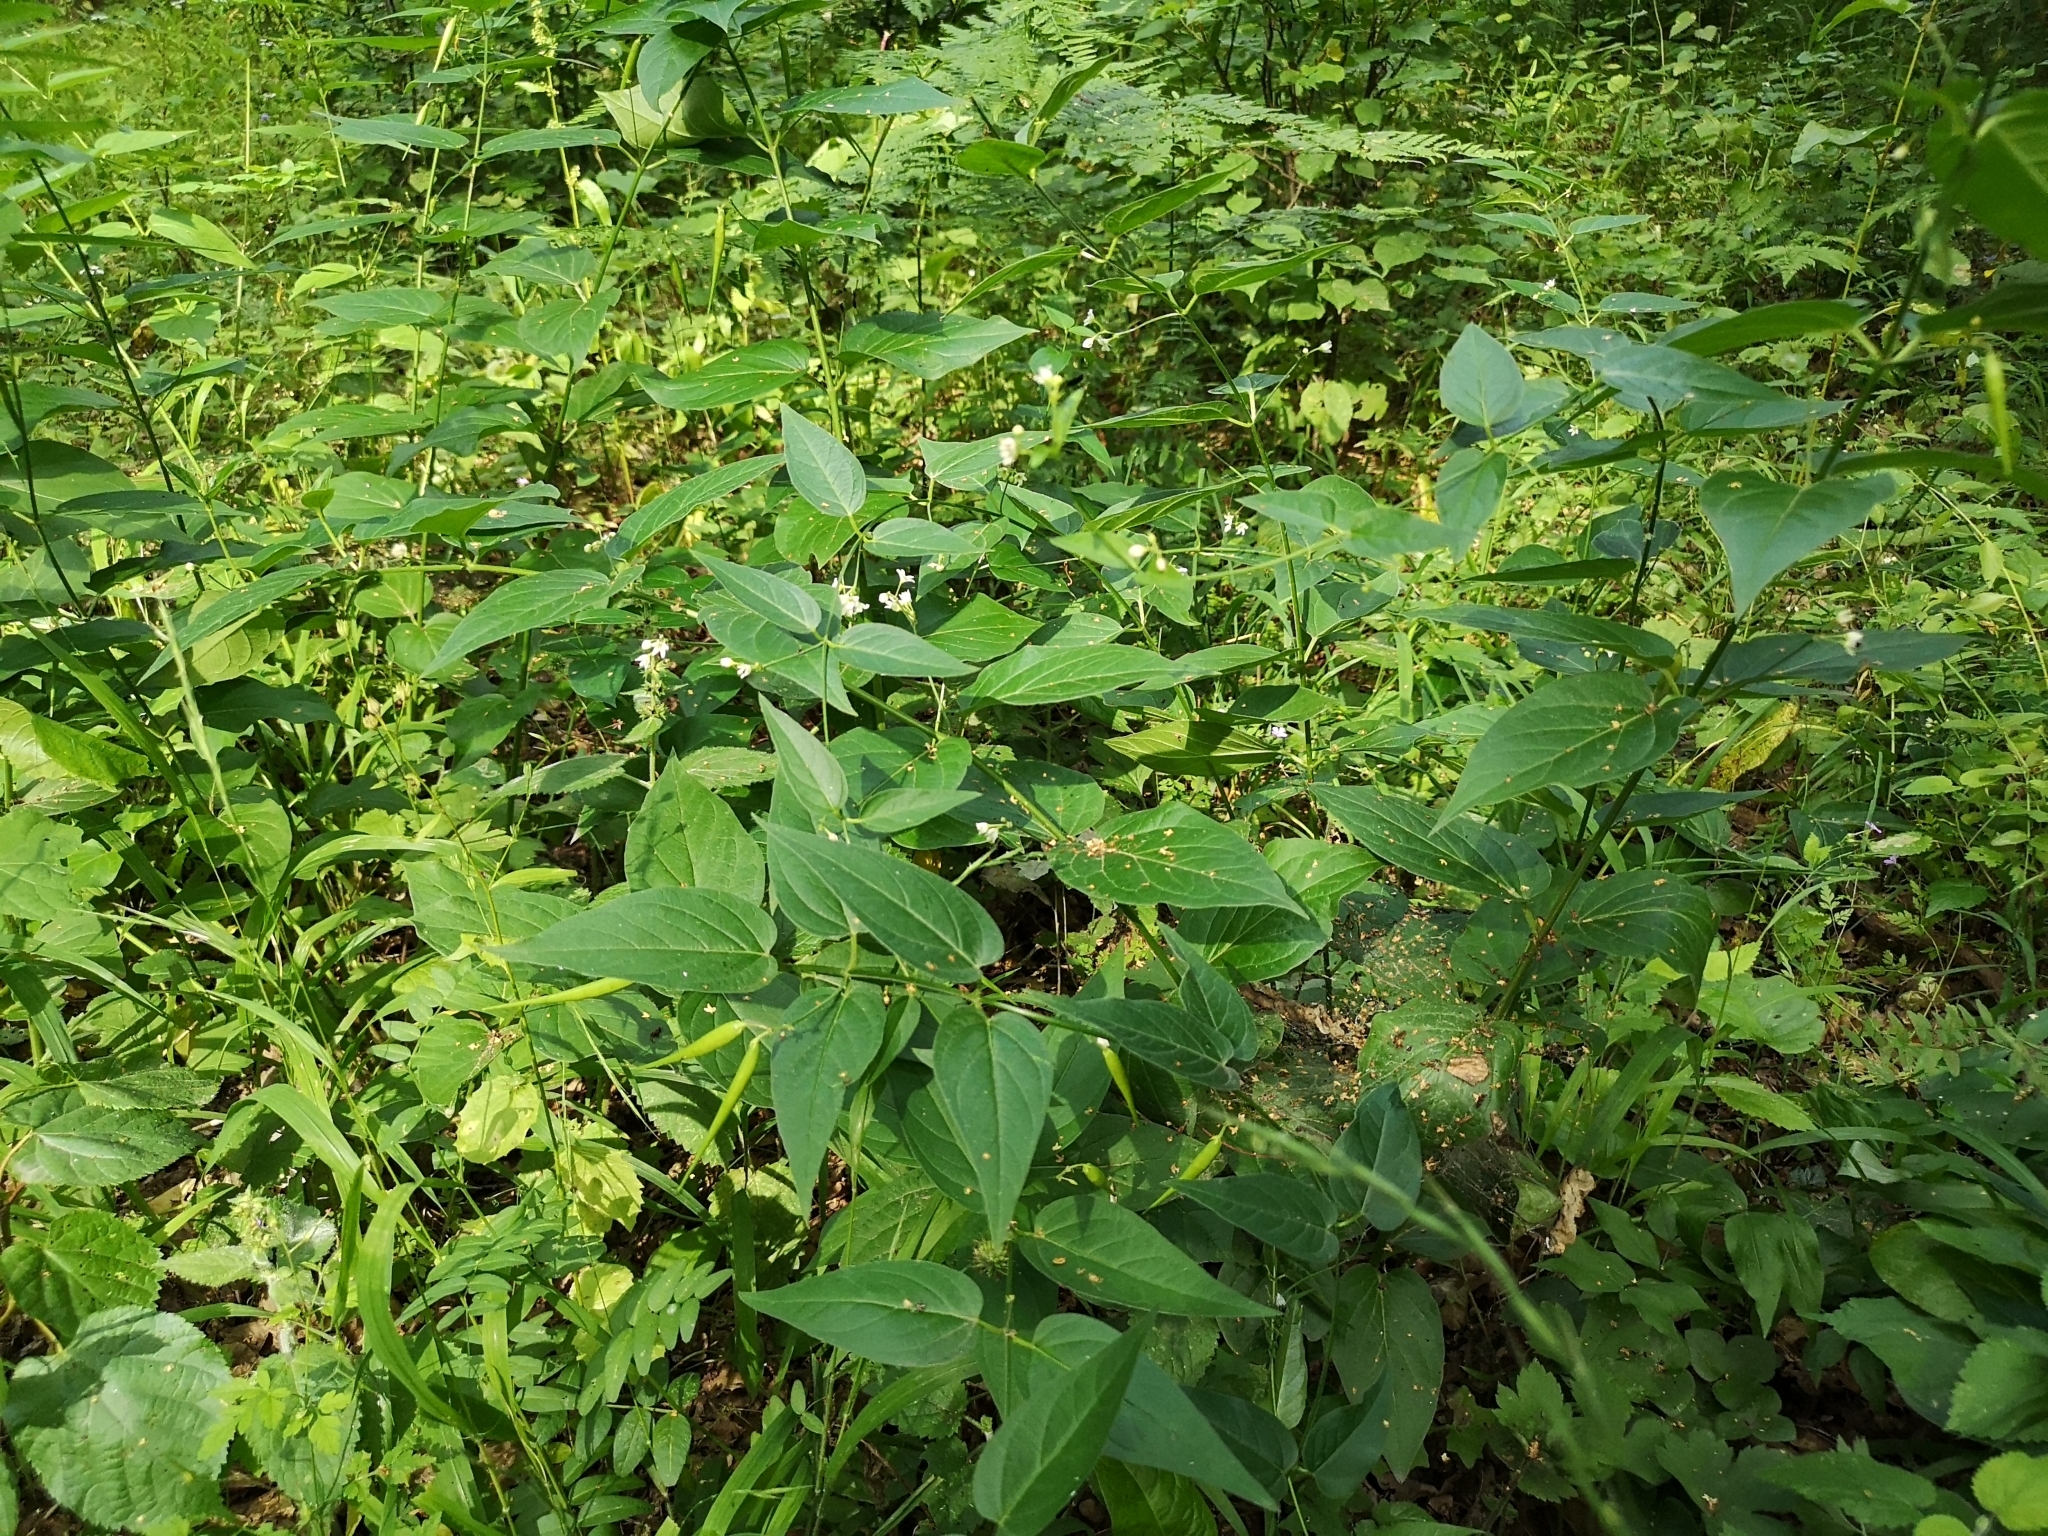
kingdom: Plantae
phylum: Tracheophyta
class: Magnoliopsida
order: Gentianales
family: Apocynaceae
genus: Vincetoxicum
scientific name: Vincetoxicum hirundinaria
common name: White swallowwort
